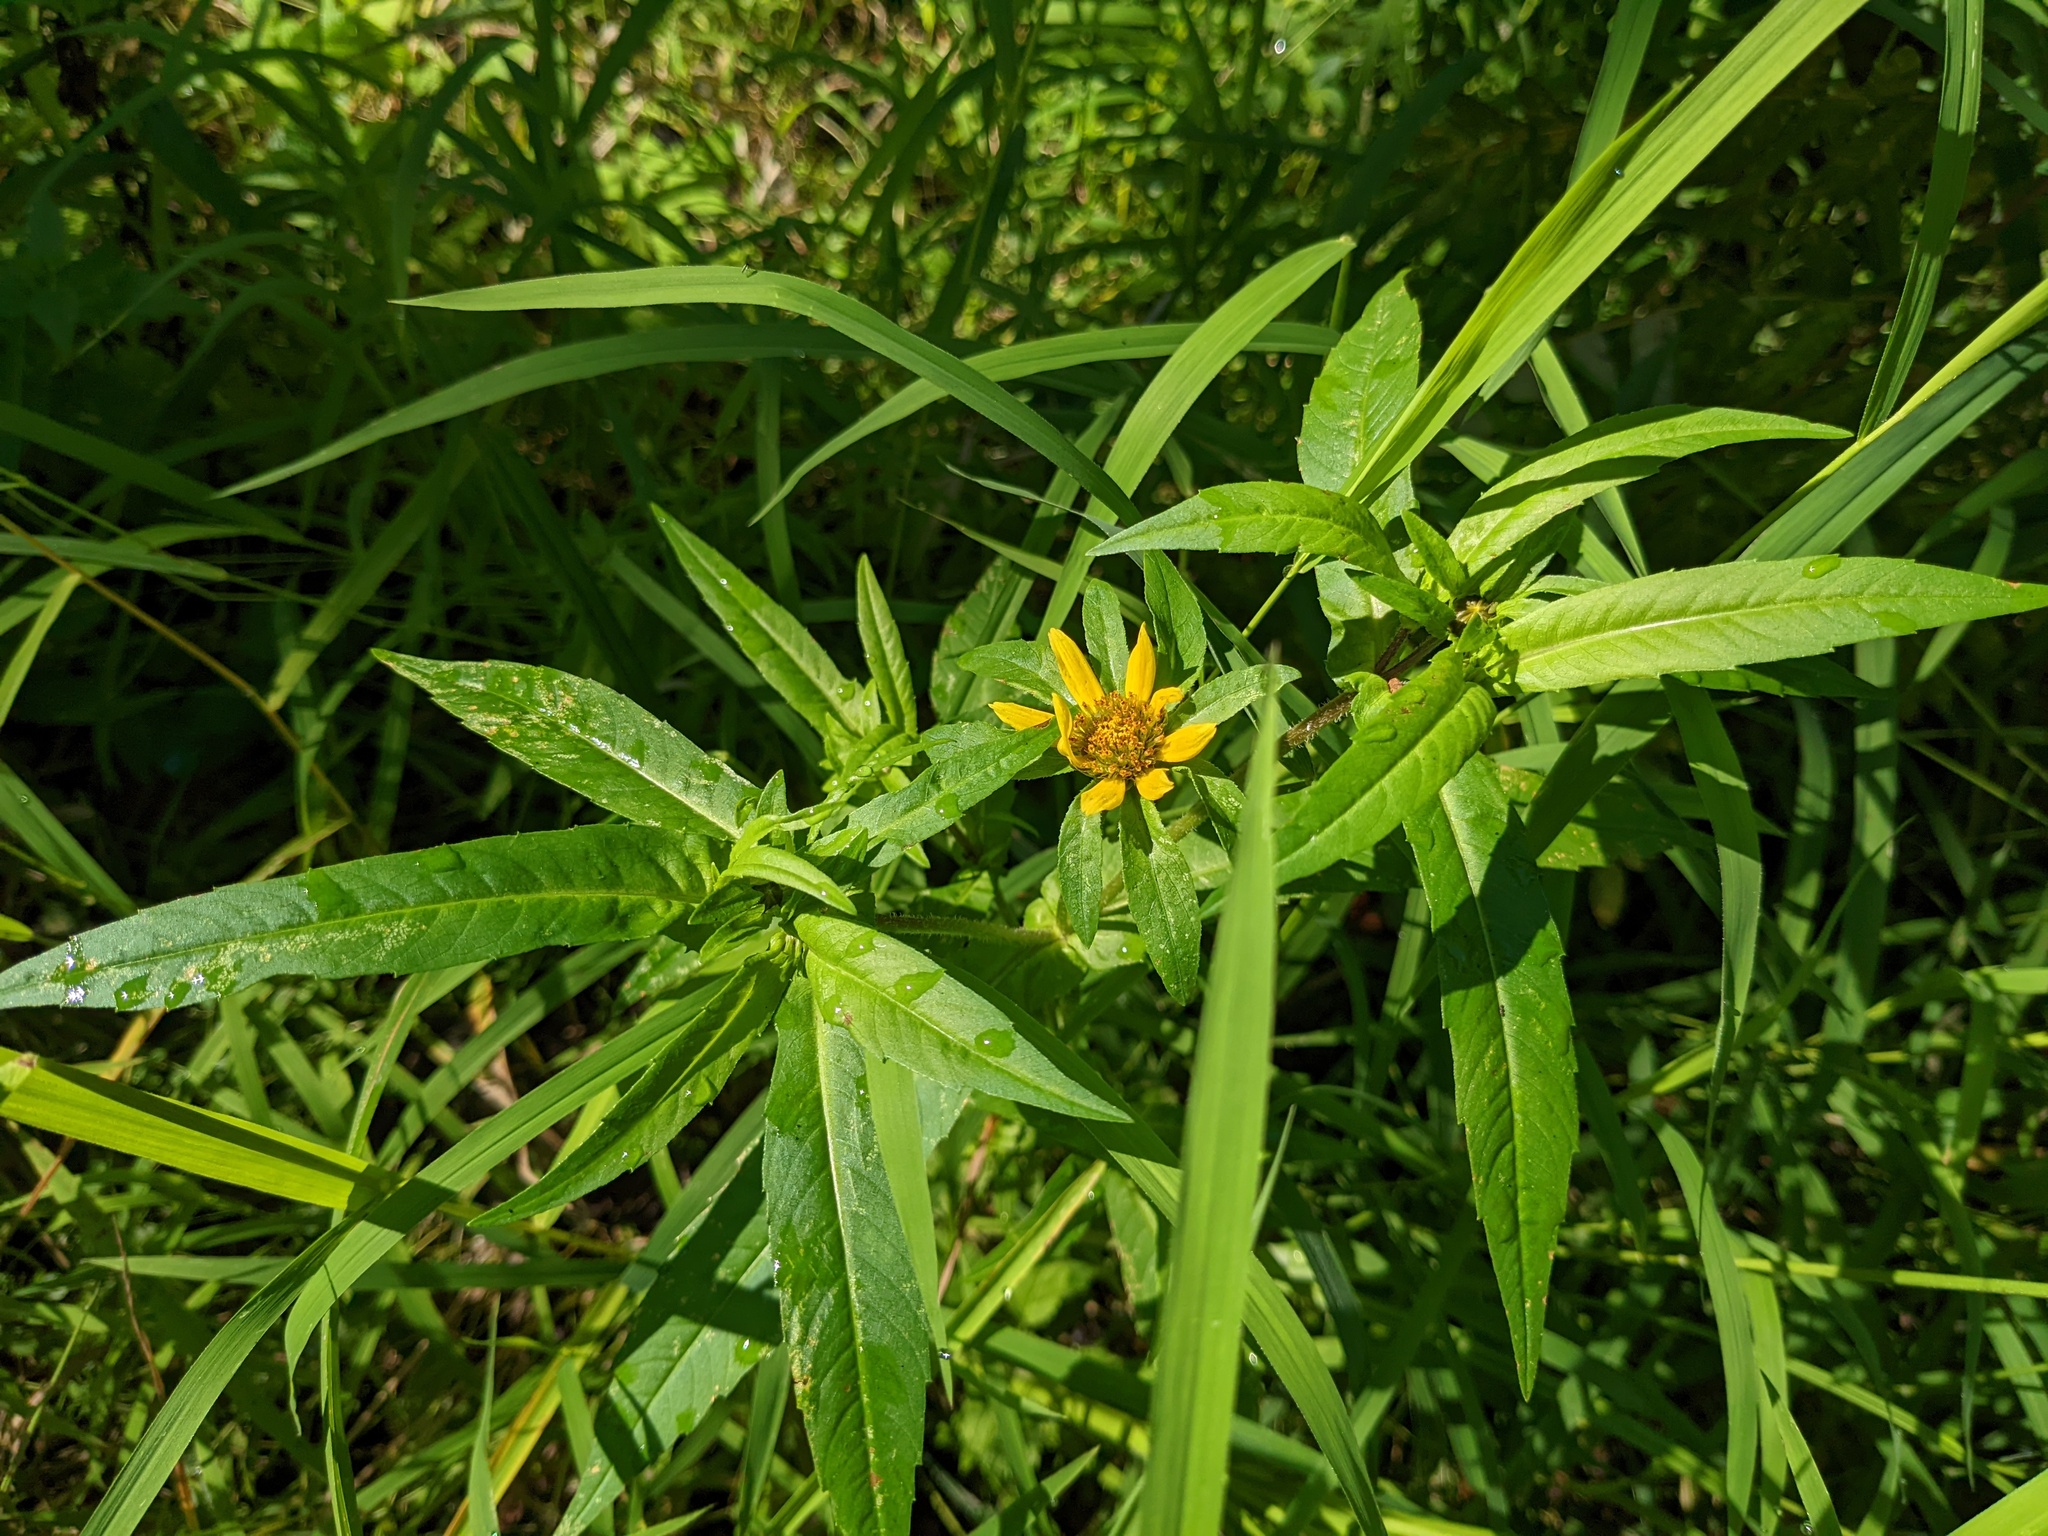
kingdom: Plantae
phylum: Tracheophyta
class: Magnoliopsida
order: Asterales
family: Asteraceae
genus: Bidens
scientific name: Bidens cernua
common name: Nodding bur-marigold
